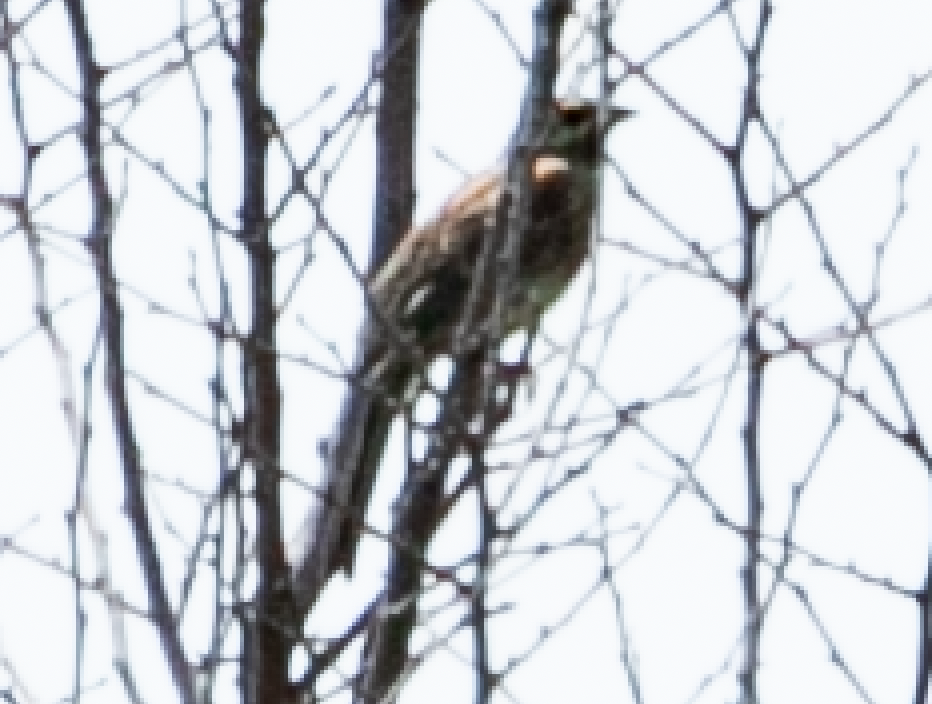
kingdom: Animalia
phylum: Chordata
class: Aves
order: Passeriformes
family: Emberizidae
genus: Emberiza
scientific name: Emberiza cirlus
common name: Cirl bunting
